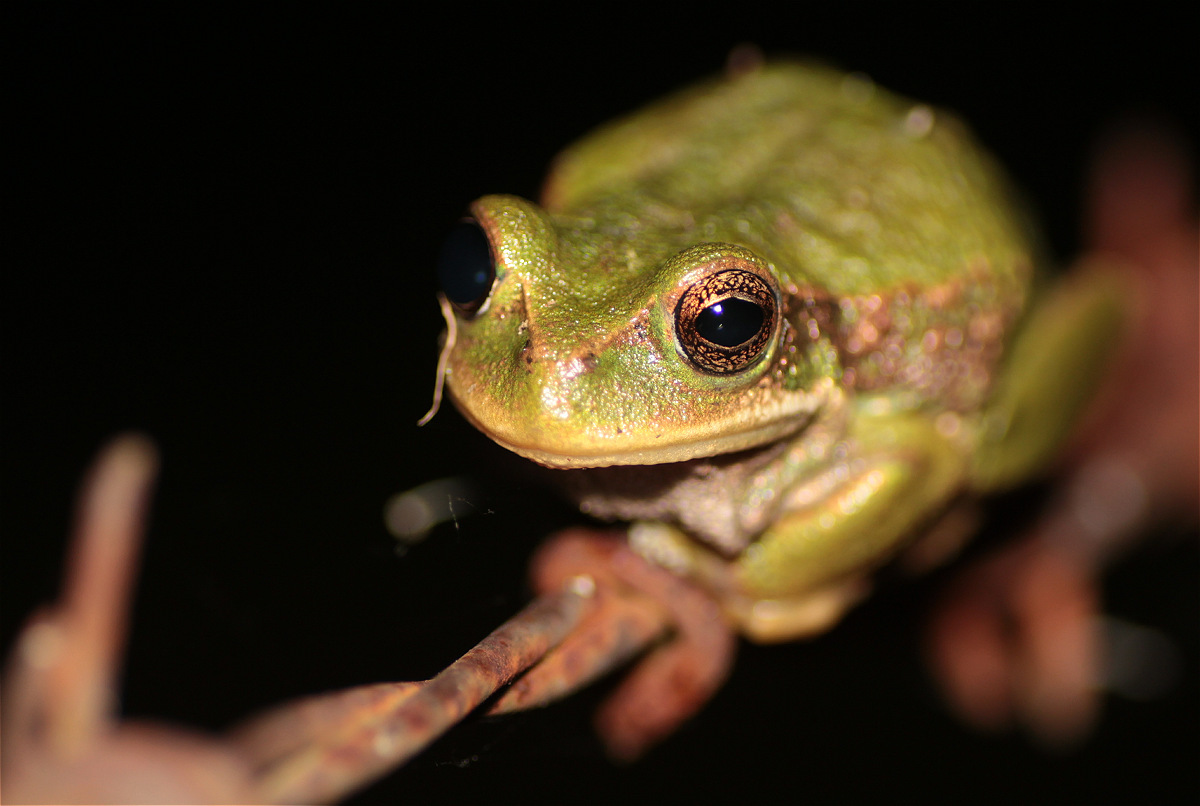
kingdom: Animalia
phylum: Chordata
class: Amphibia
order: Anura
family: Hemiphractidae
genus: Gastrotheca
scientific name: Gastrotheca cuencana
